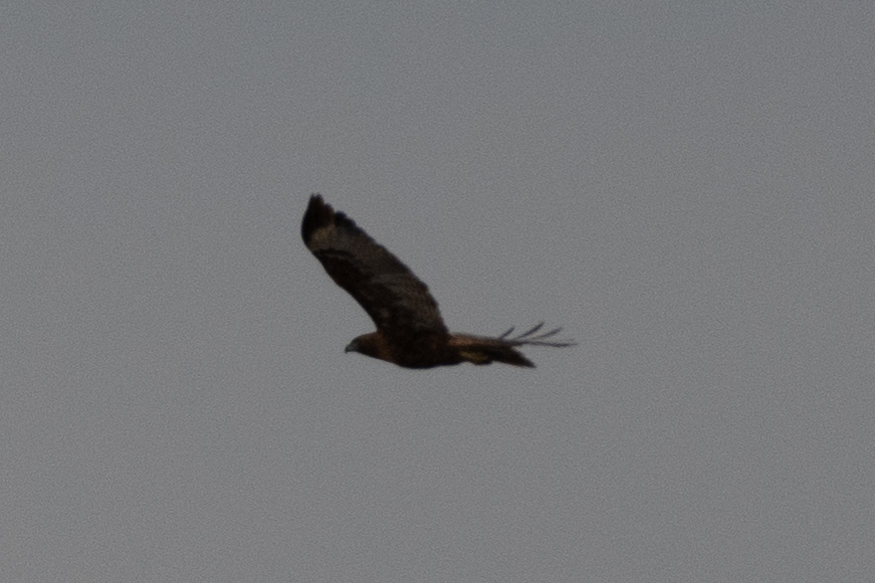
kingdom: Animalia
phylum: Chordata
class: Aves
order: Accipitriformes
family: Accipitridae
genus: Buteo
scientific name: Buteo jamaicensis
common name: Red-tailed hawk
